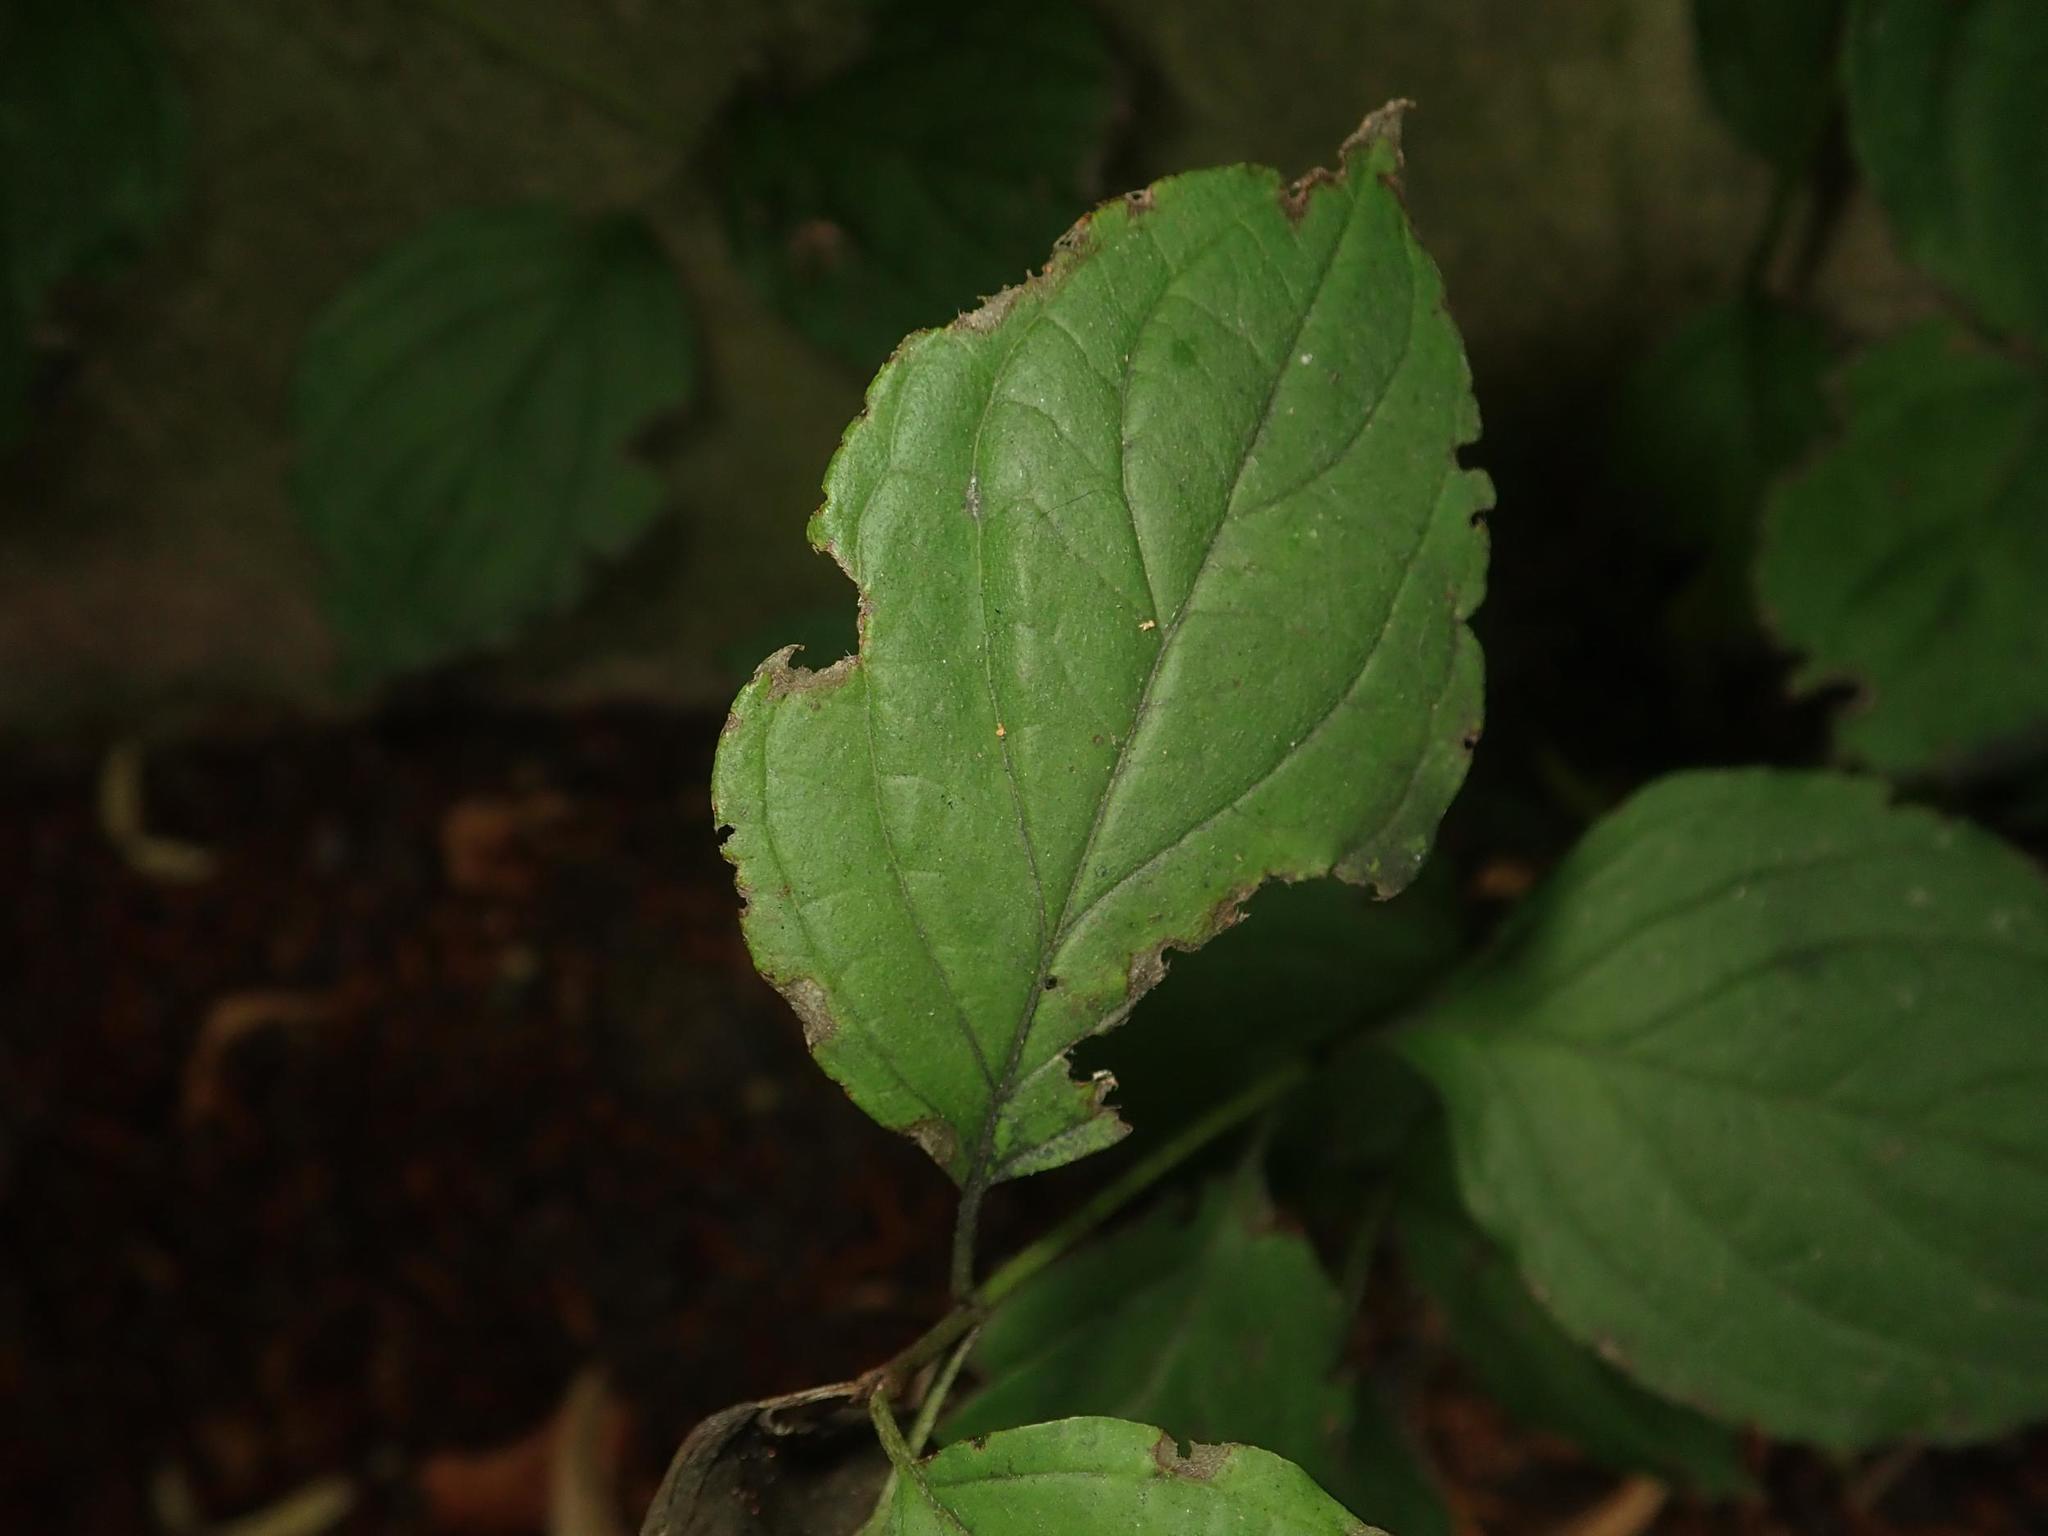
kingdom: Plantae
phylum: Tracheophyta
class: Magnoliopsida
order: Cornales
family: Cornaceae
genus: Cornus
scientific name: Cornus sanguinea
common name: Dogwood
